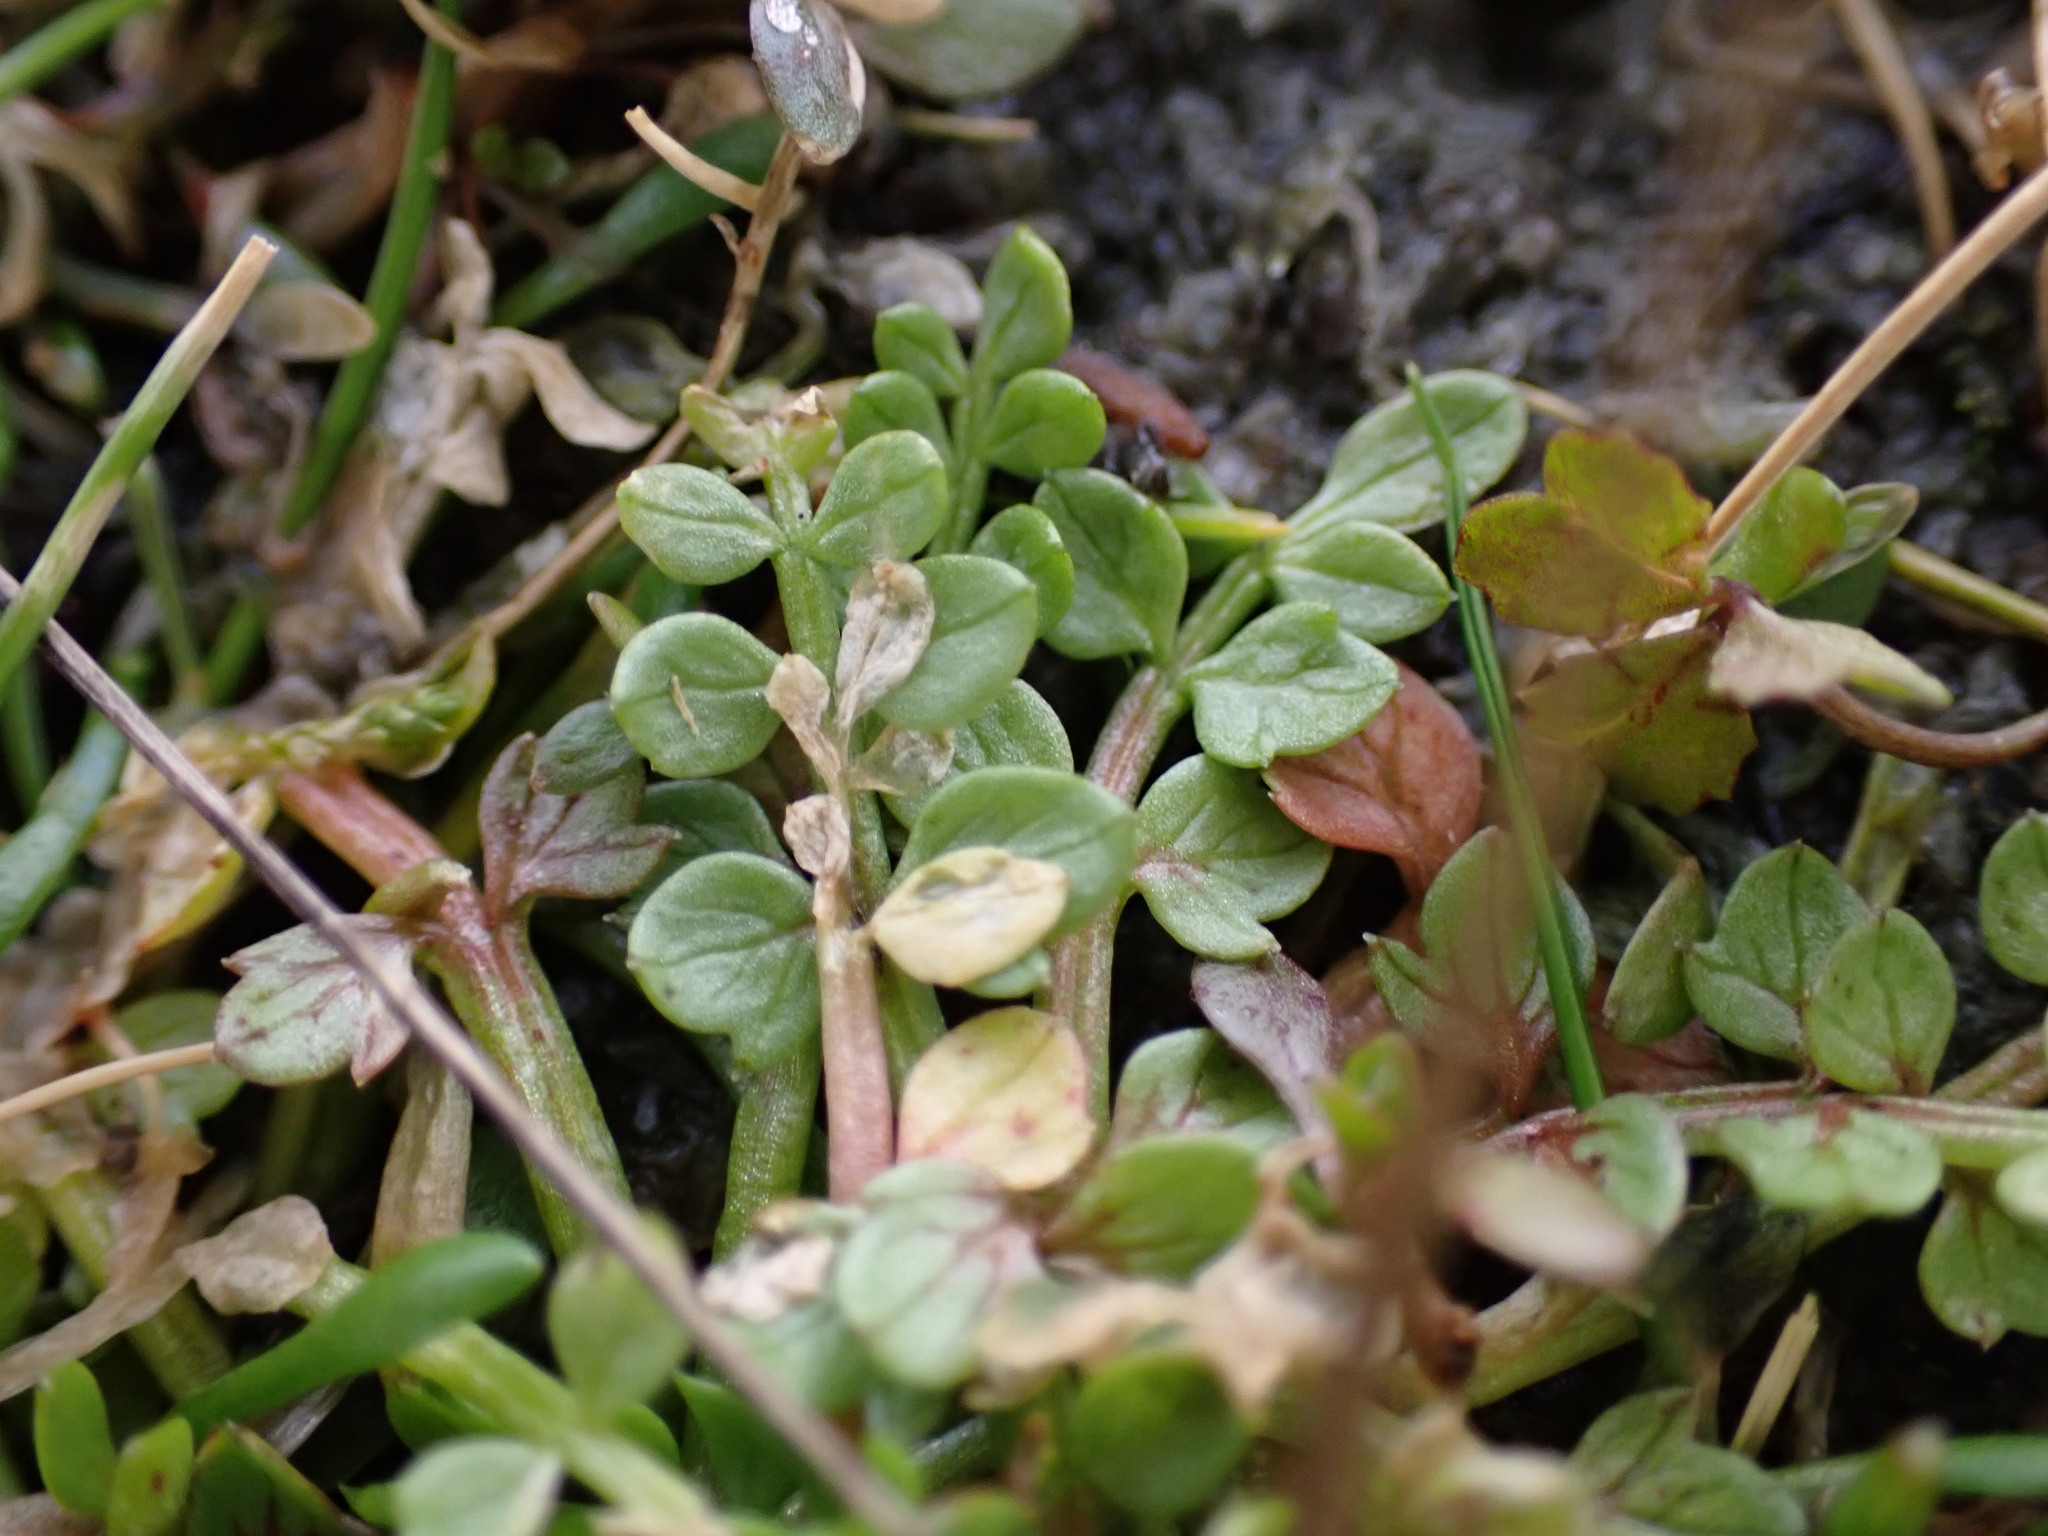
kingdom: Plantae
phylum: Tracheophyta
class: Magnoliopsida
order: Brassicales
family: Limnanthaceae
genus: Limnanthes
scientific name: Limnanthes macounii
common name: Macoun's meadowfoam
